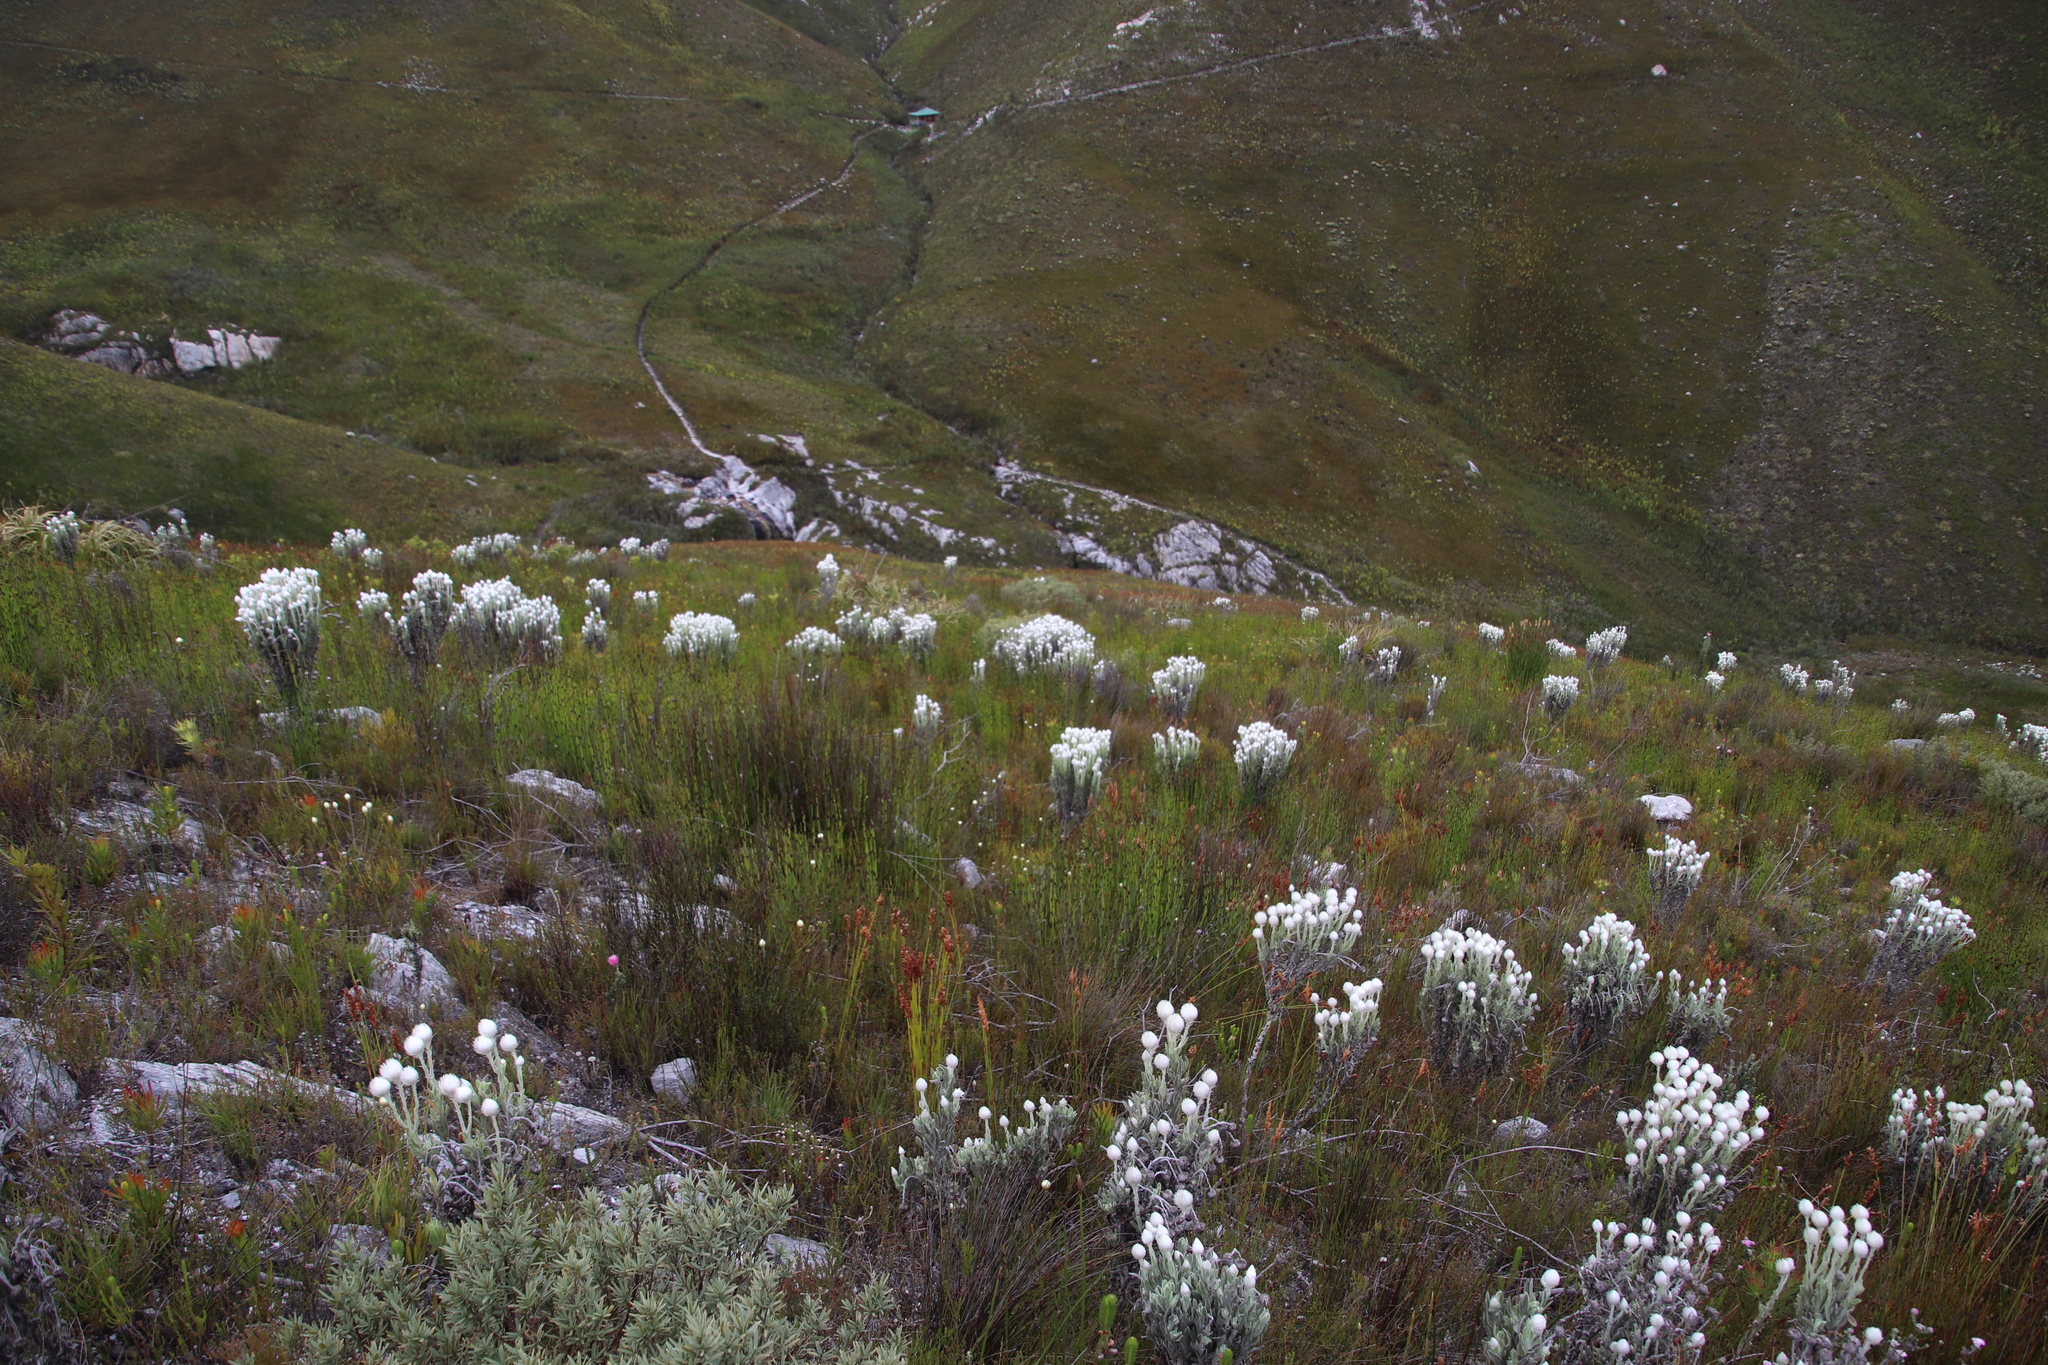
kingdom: Plantae
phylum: Tracheophyta
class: Magnoliopsida
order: Asterales
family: Asteraceae
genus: Syncarpha
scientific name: Syncarpha vestita
